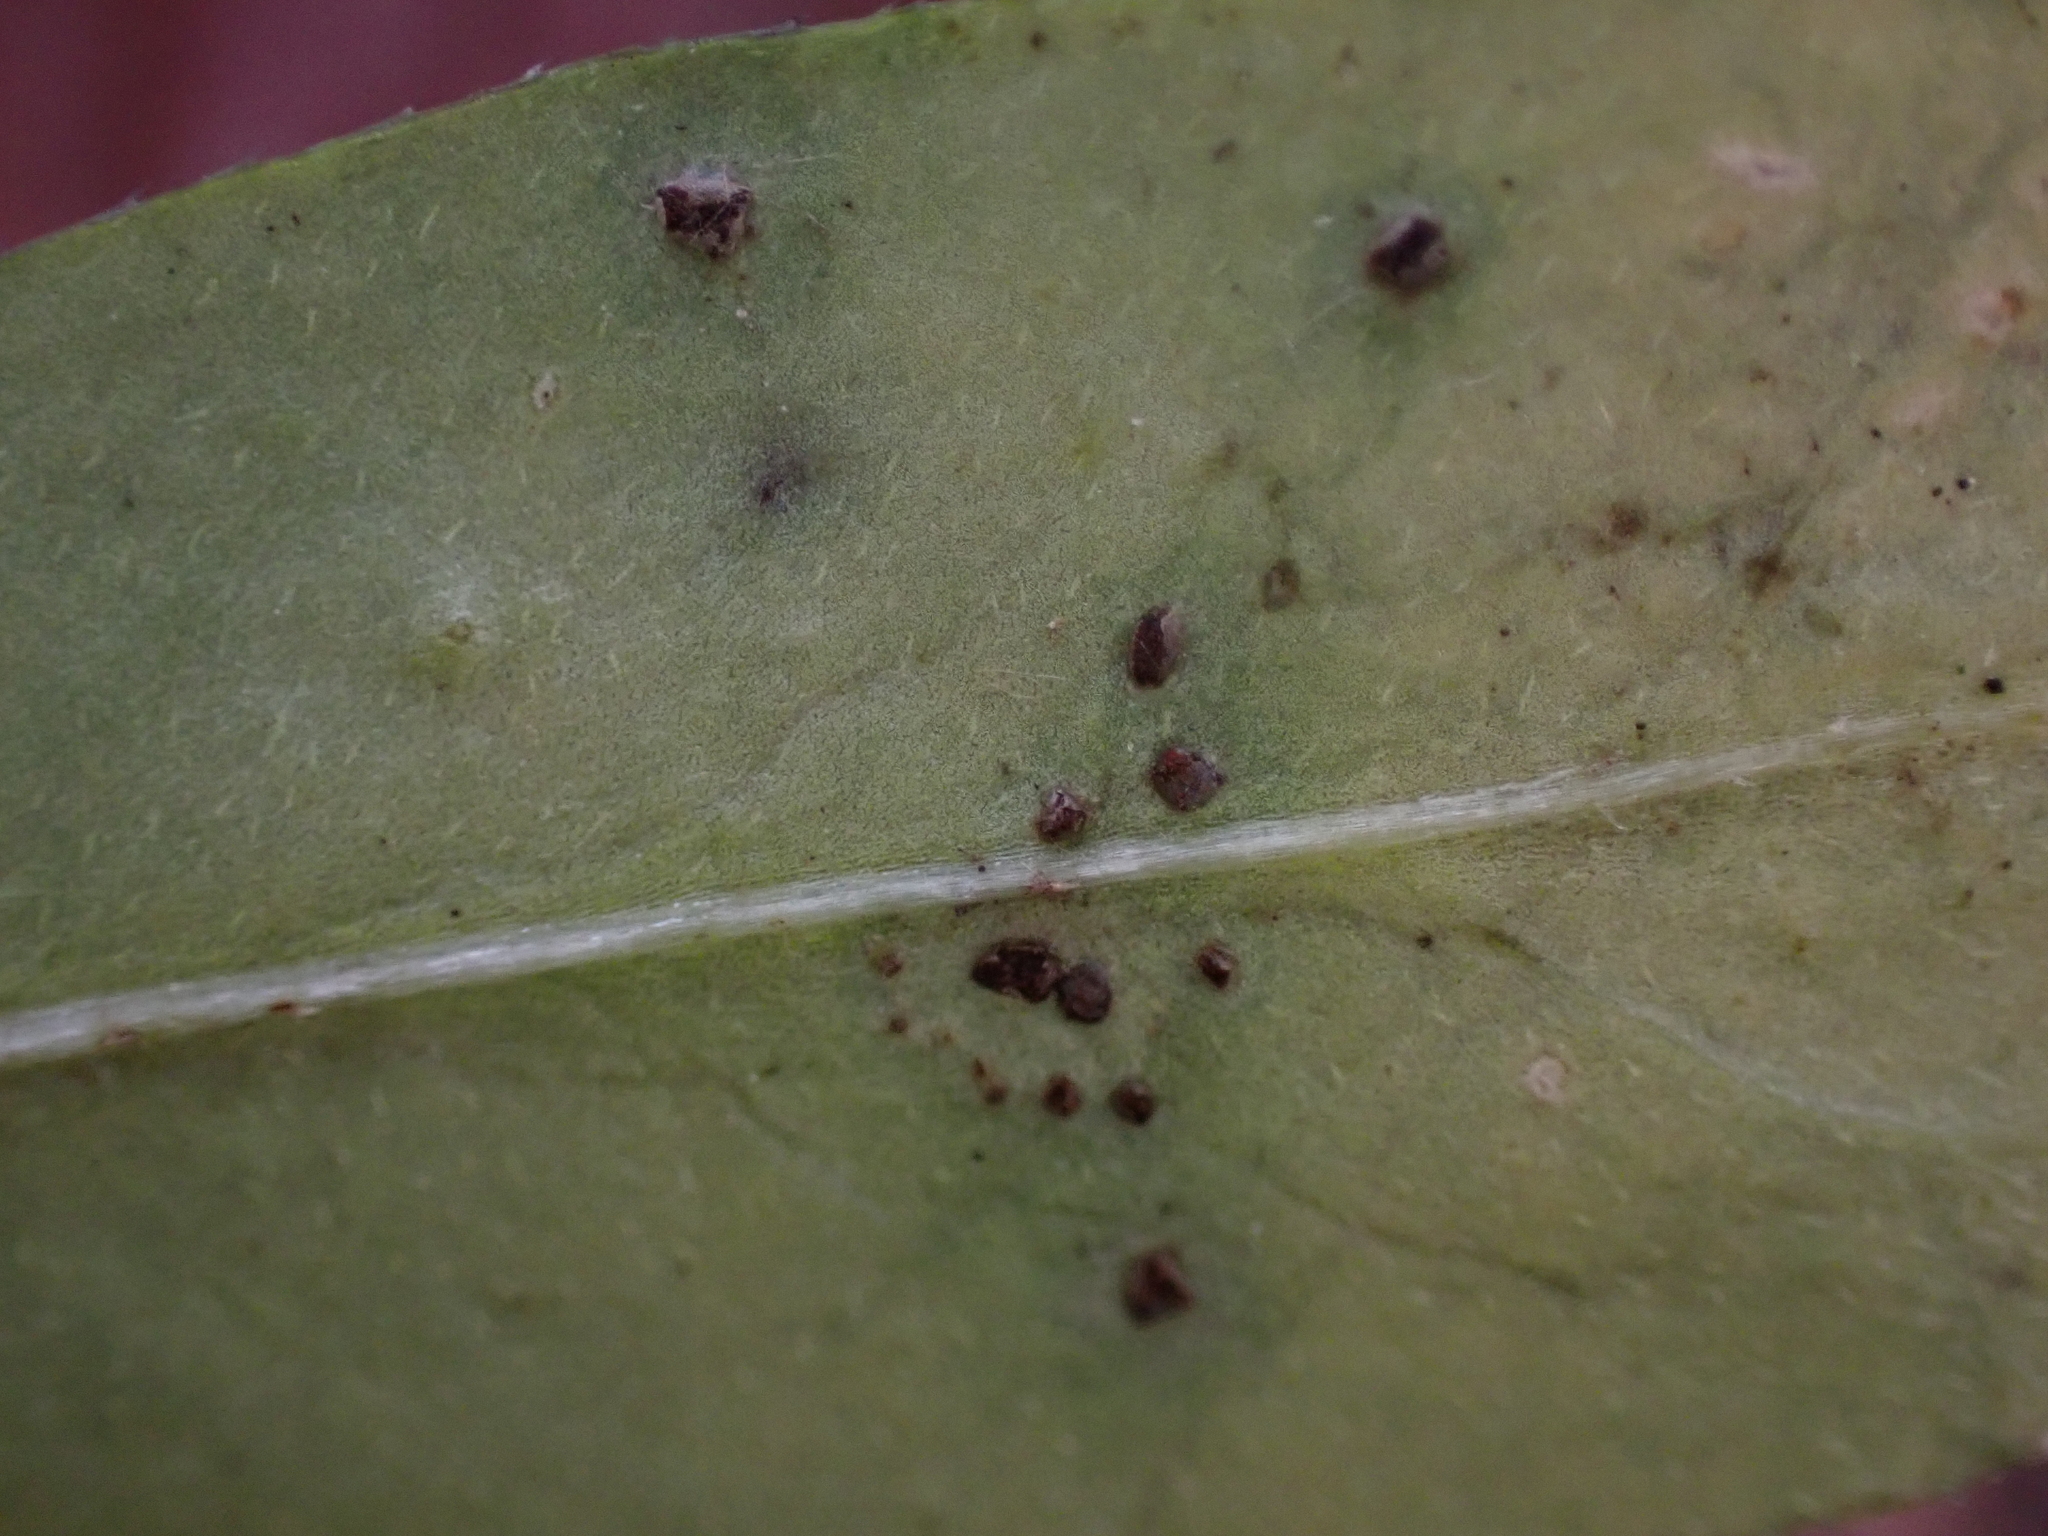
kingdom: Fungi
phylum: Basidiomycota
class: Pucciniomycetes
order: Pucciniales
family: Pucciniaceae
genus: Puccinia
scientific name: Puccinia punctata
